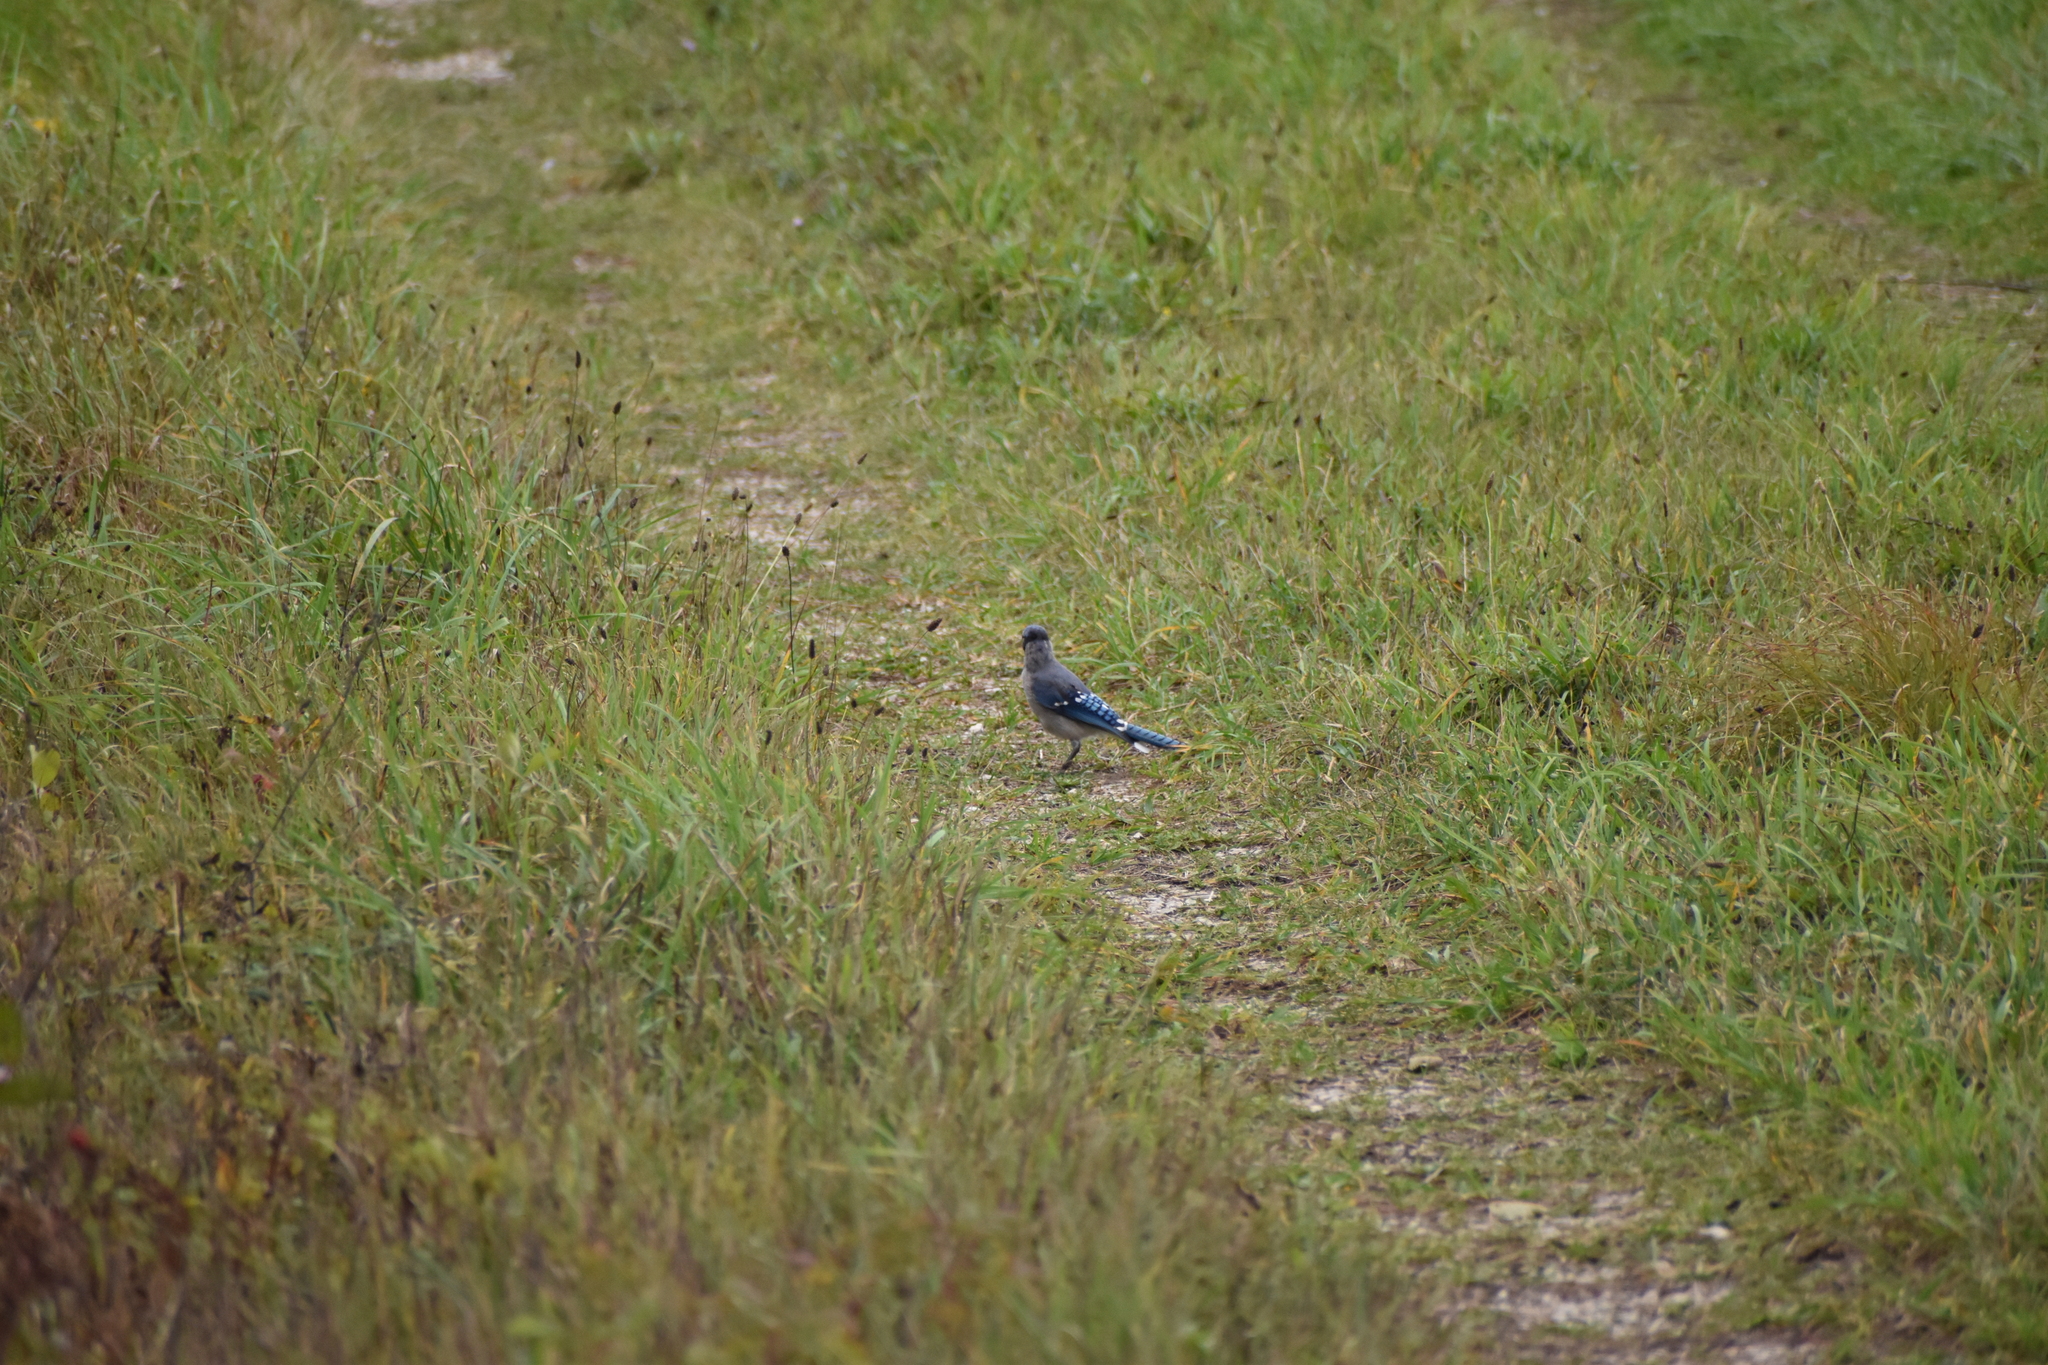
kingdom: Animalia
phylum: Chordata
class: Aves
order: Passeriformes
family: Corvidae
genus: Cyanocitta
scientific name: Cyanocitta cristata
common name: Blue jay
